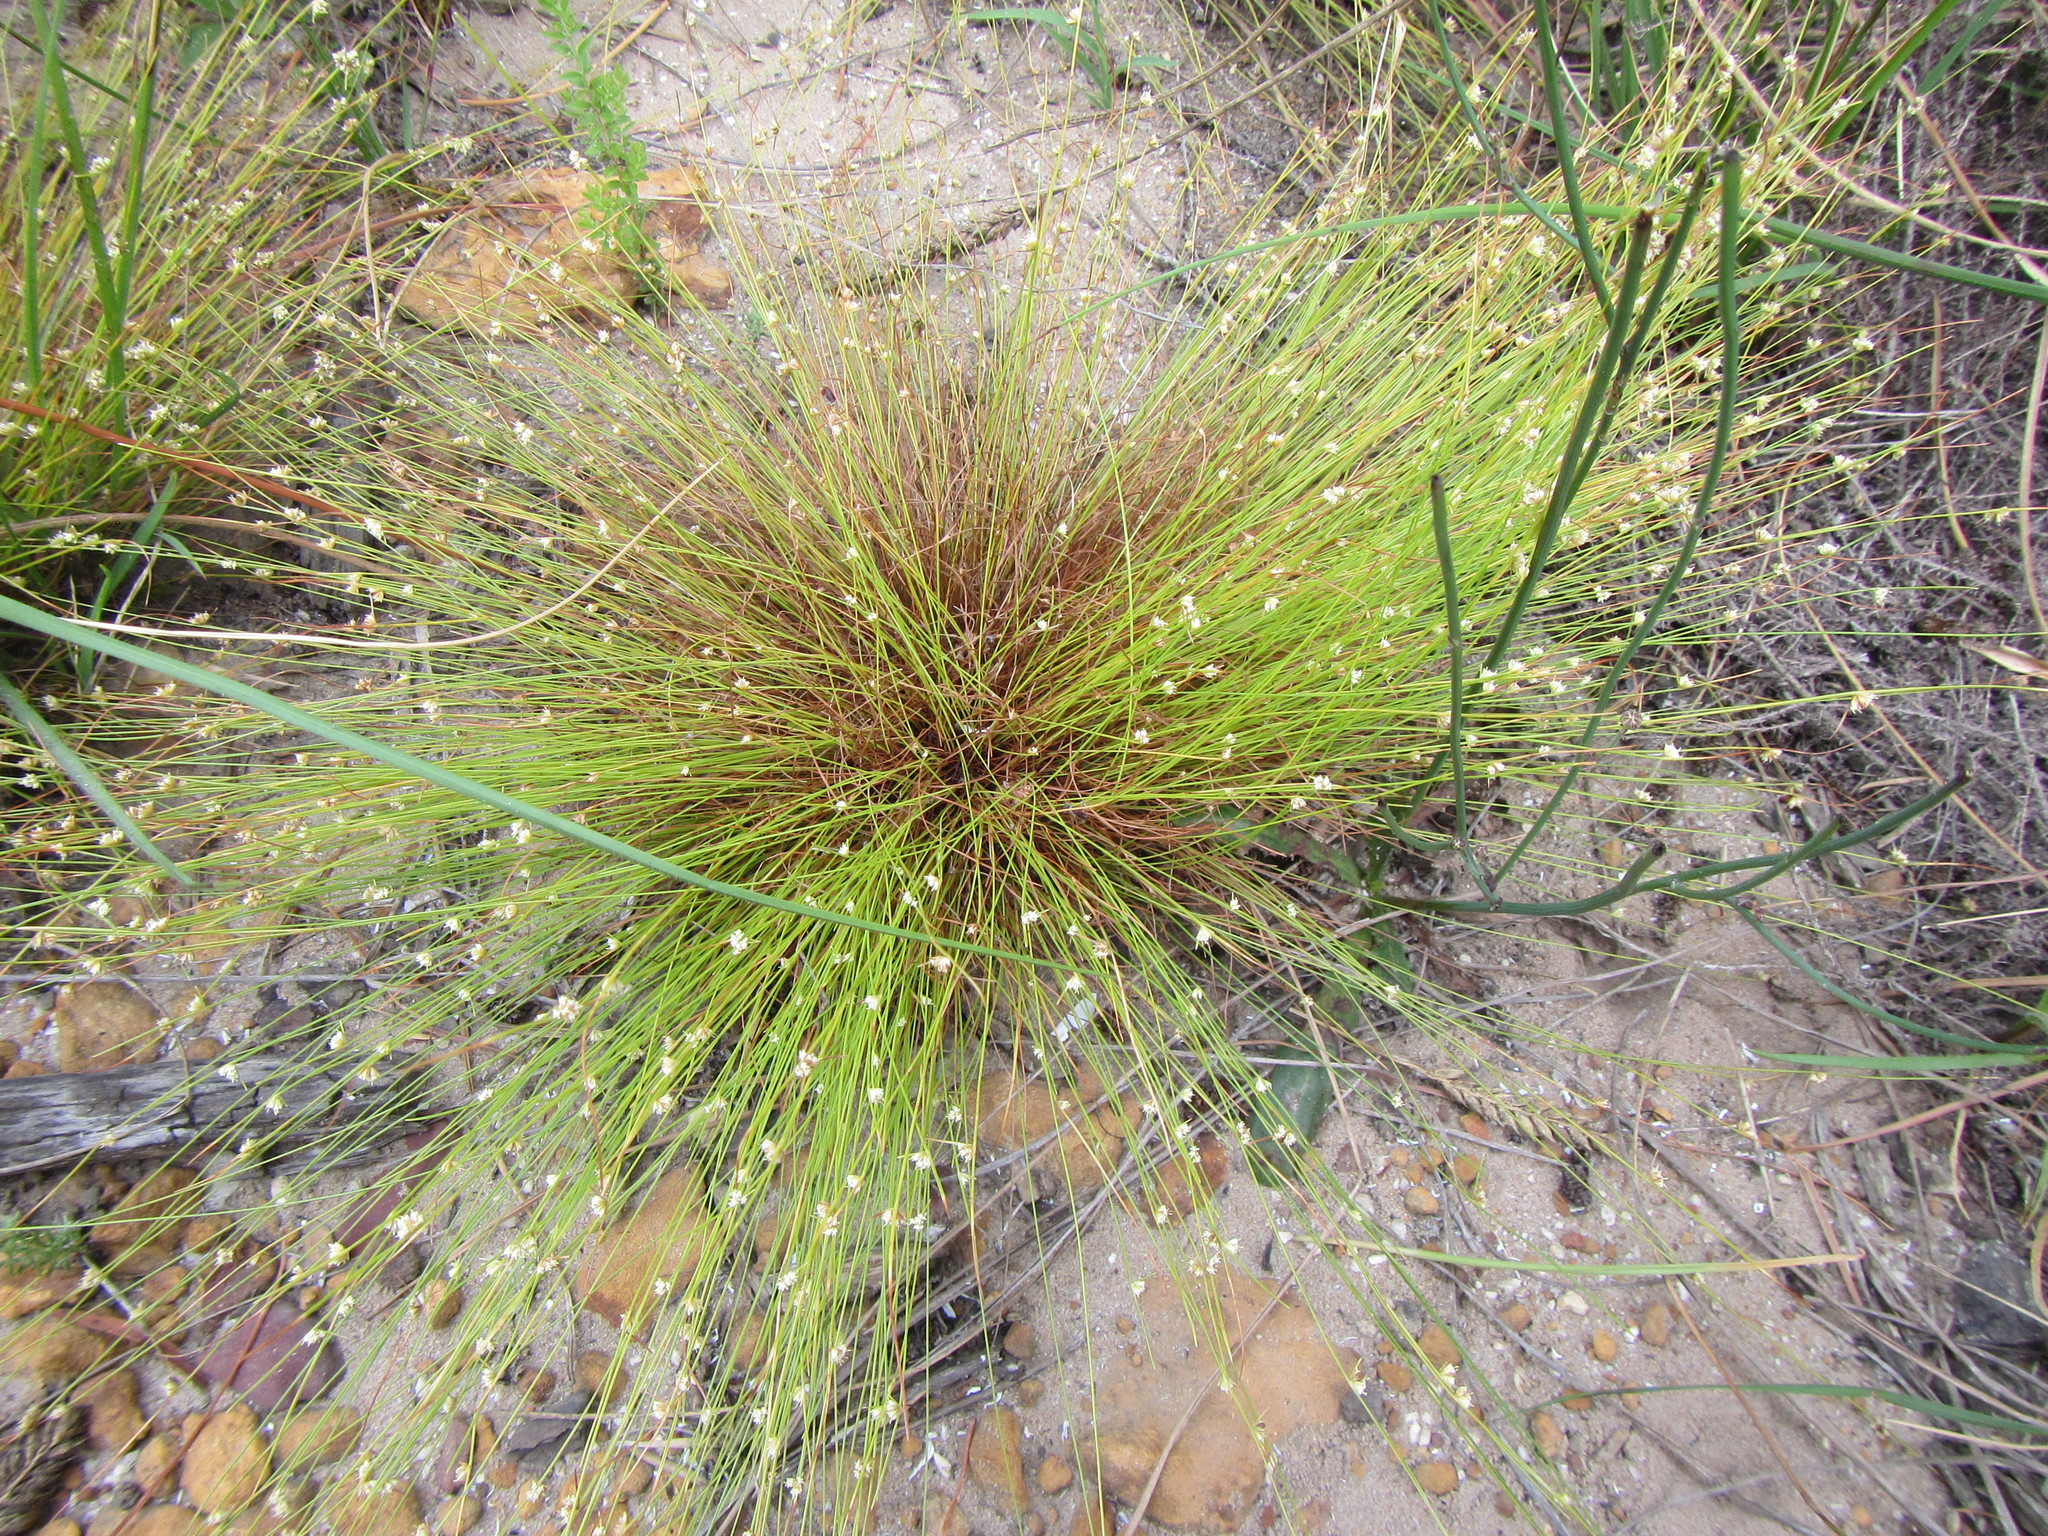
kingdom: Plantae
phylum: Tracheophyta
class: Liliopsida
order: Poales
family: Cyperaceae
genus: Ficinia
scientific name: Ficinia minutiflora
